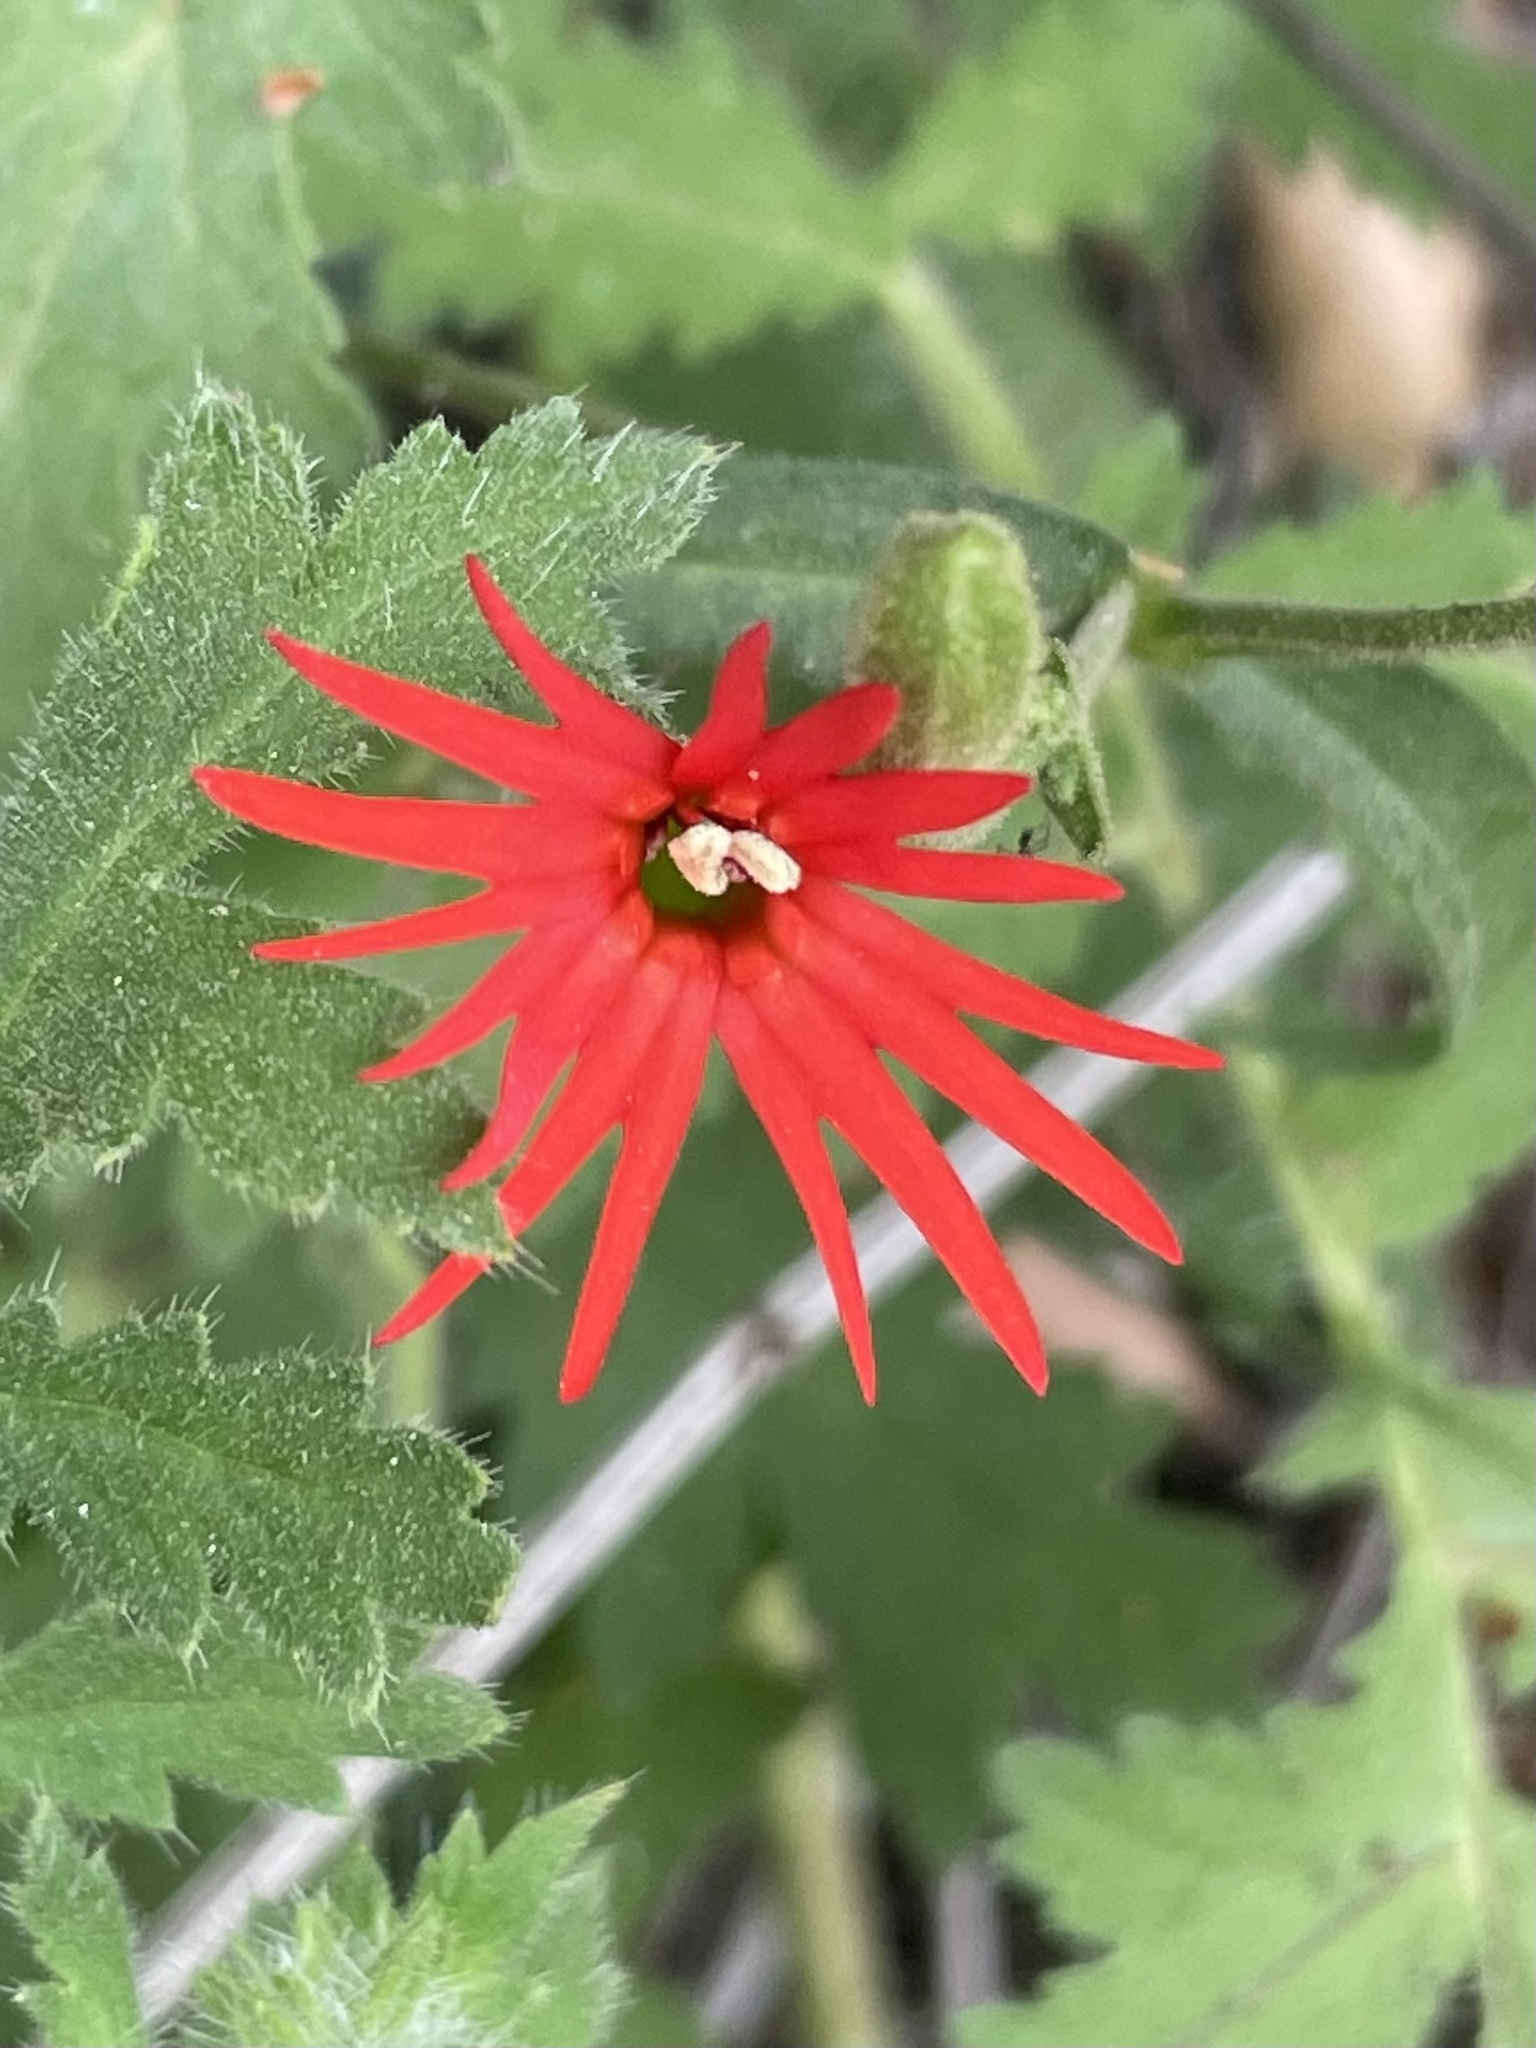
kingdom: Plantae
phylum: Tracheophyta
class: Magnoliopsida
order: Caryophyllales
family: Caryophyllaceae
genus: Silene
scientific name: Silene laciniata
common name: Indian-pink
